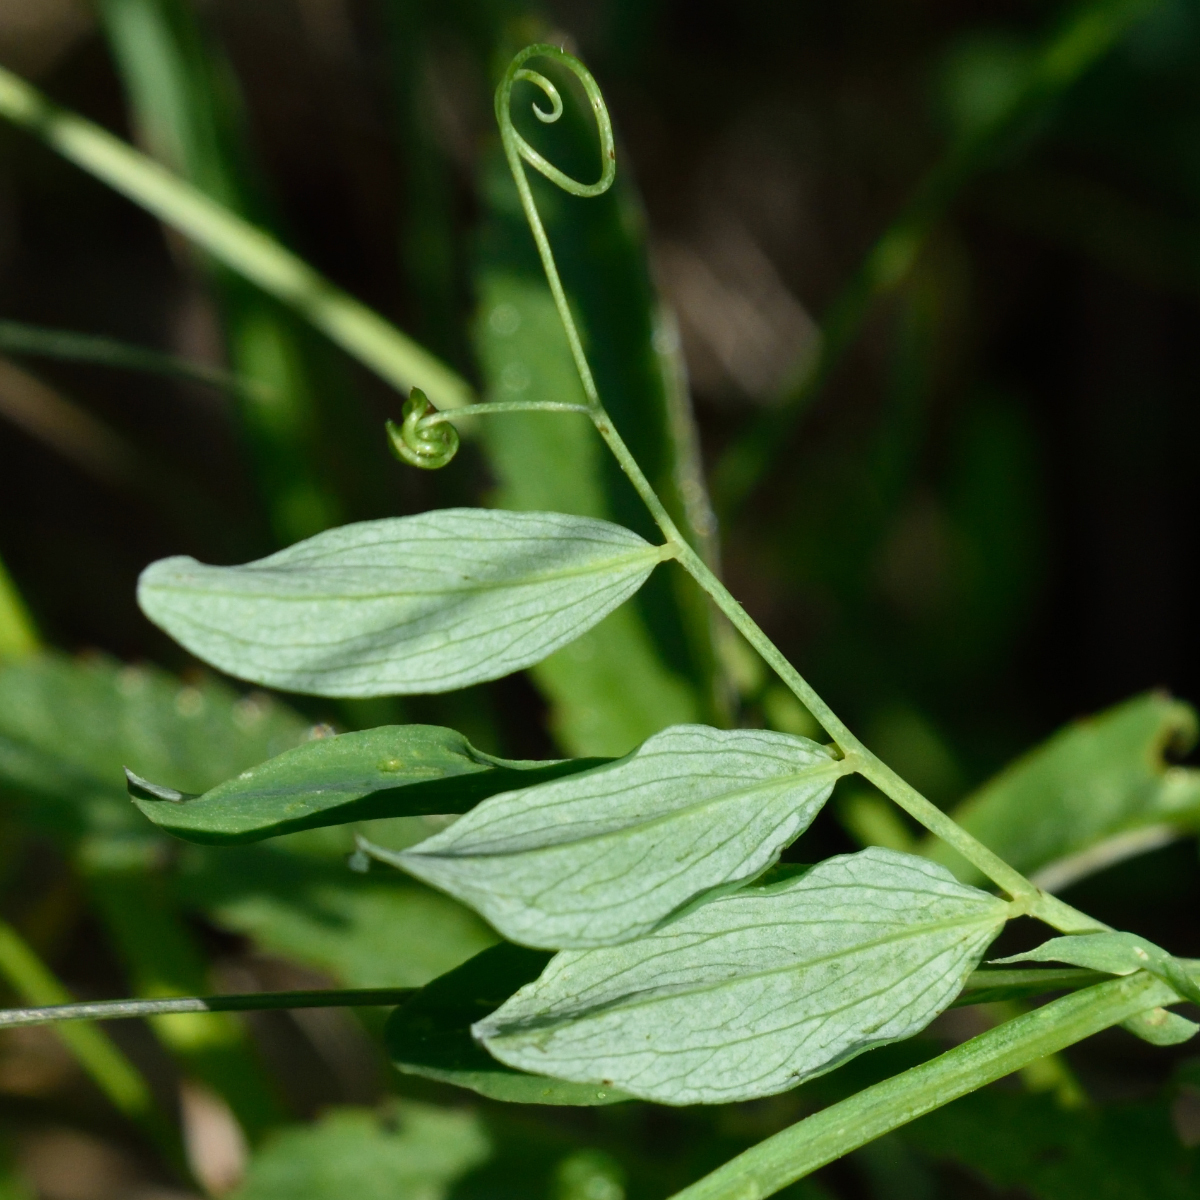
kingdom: Plantae
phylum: Tracheophyta
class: Magnoliopsida
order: Fabales
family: Fabaceae
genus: Lathyrus
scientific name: Lathyrus palustris
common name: Marsh pea
